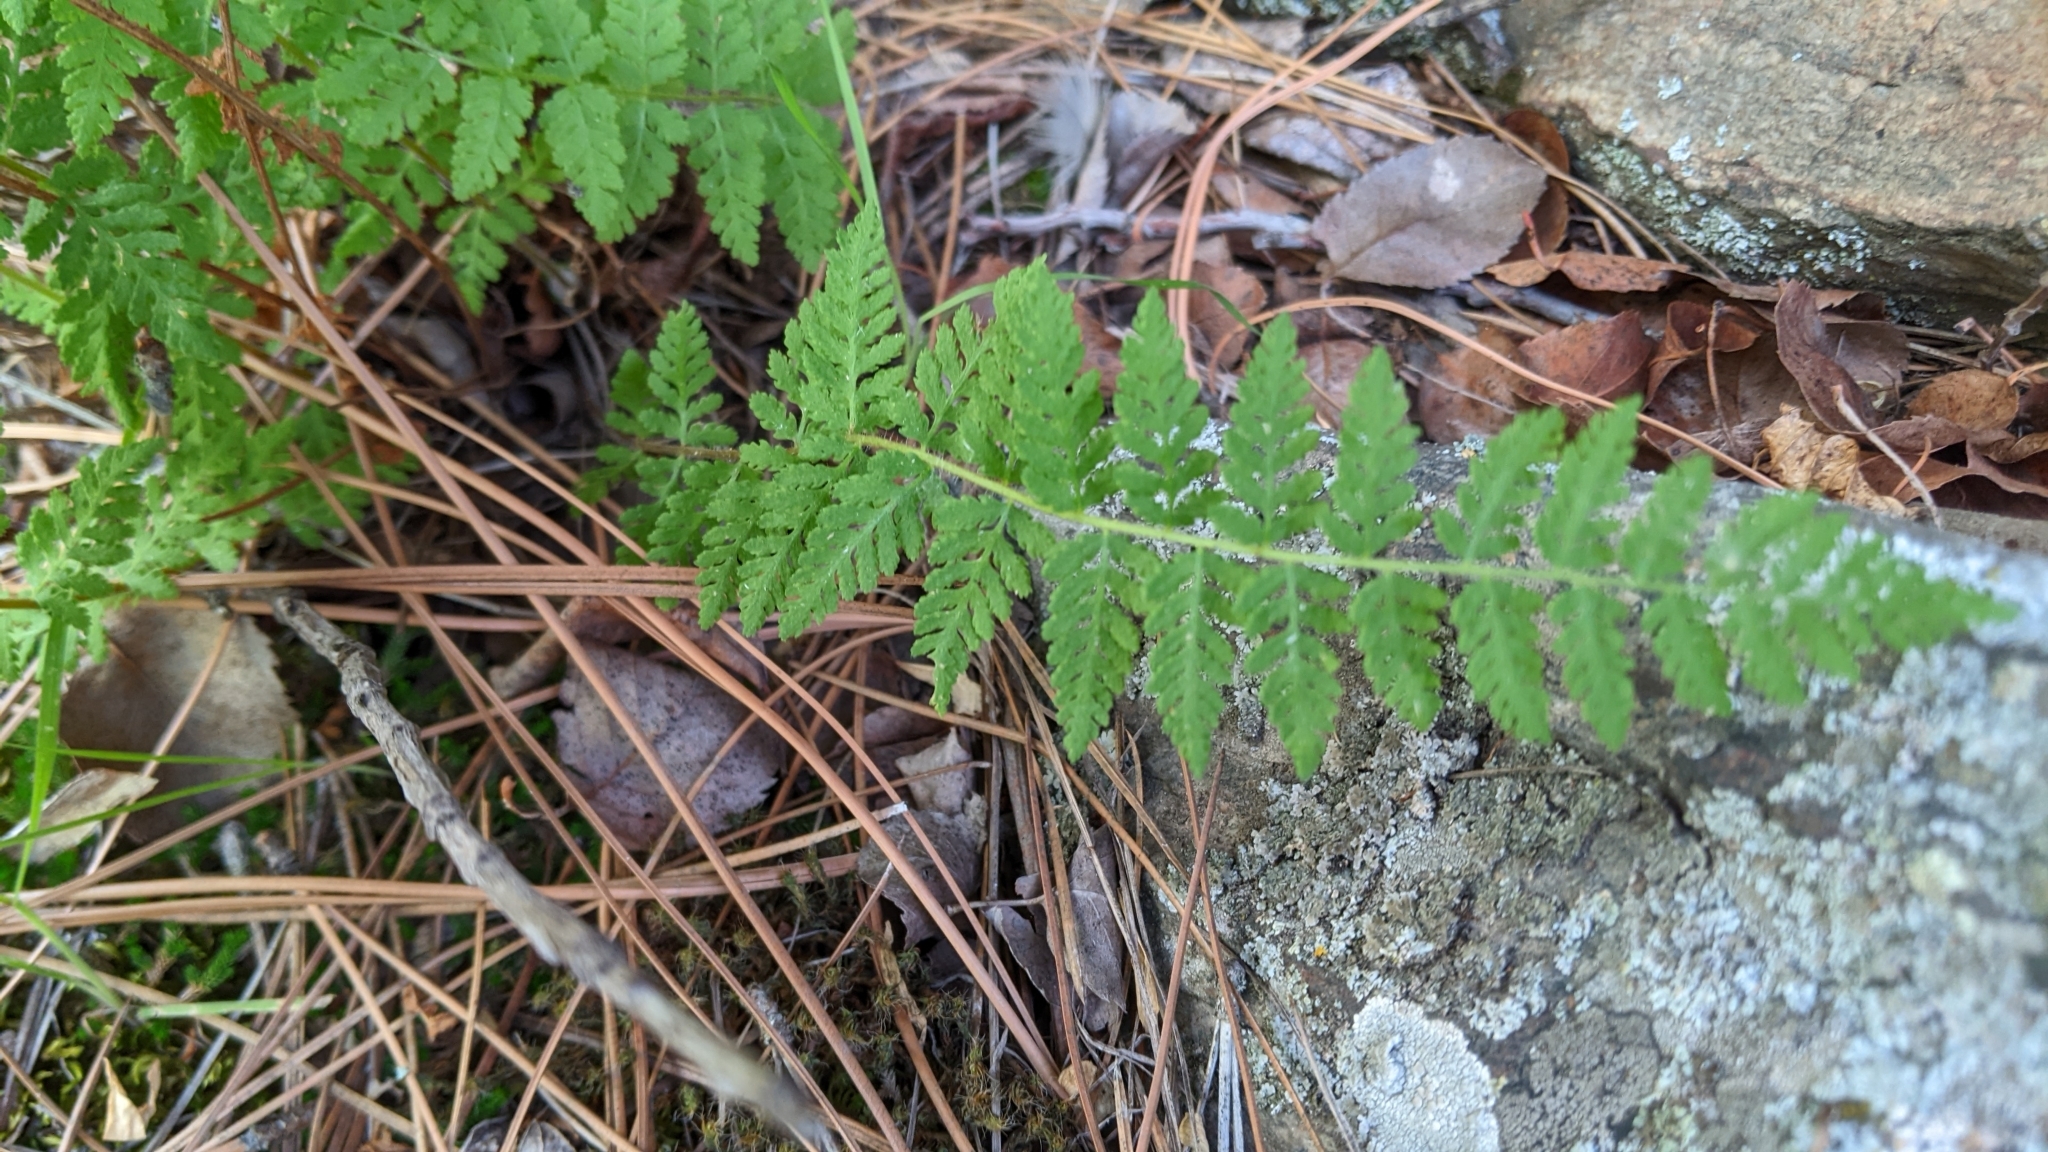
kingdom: Plantae
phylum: Tracheophyta
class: Polypodiopsida
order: Polypodiales
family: Woodsiaceae
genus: Physematium
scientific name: Physematium scopulinum
